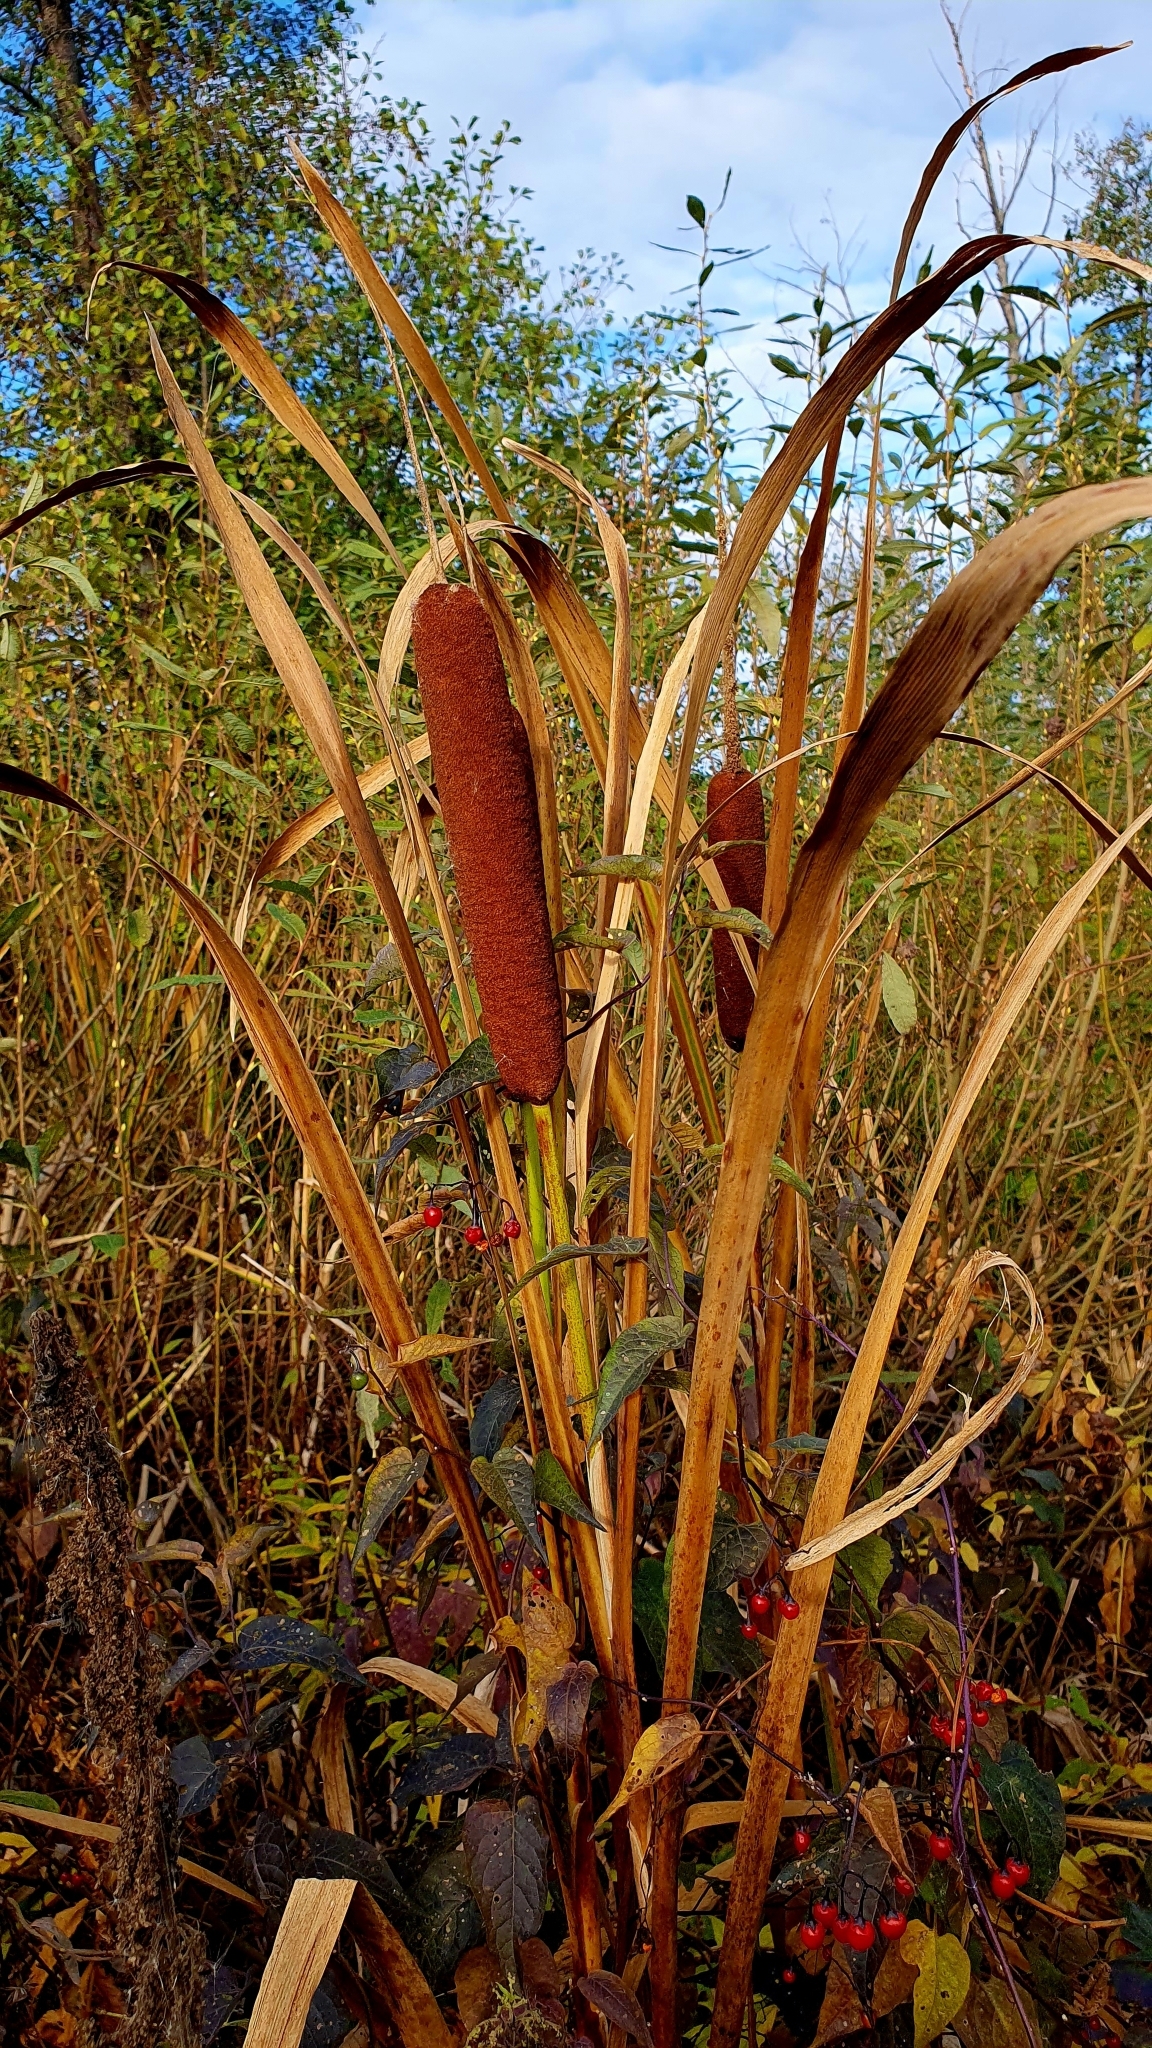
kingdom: Plantae
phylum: Tracheophyta
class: Liliopsida
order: Poales
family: Typhaceae
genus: Typha
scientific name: Typha latifolia
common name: Broadleaf cattail
